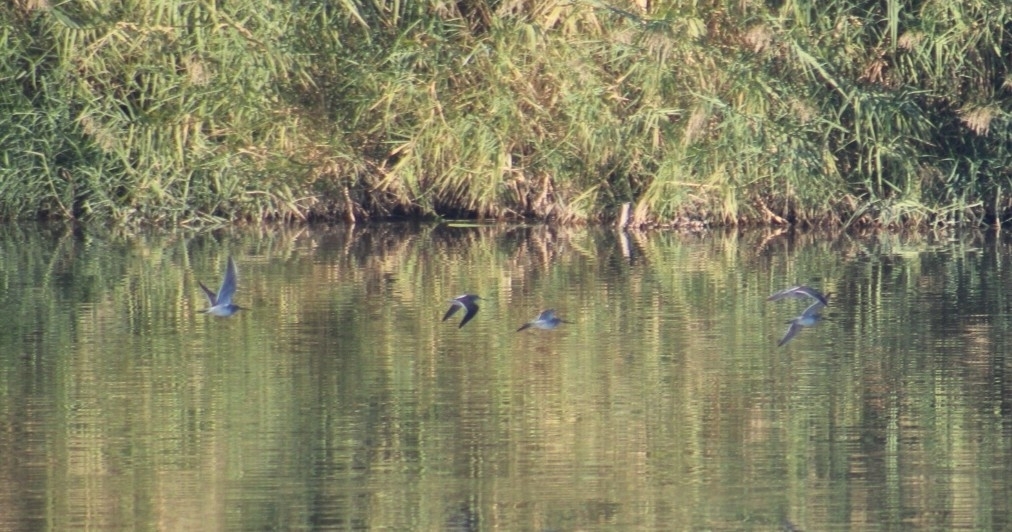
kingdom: Animalia
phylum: Chordata
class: Aves
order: Charadriiformes
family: Scolopacidae
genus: Limnodromus
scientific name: Limnodromus scolopaceus
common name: Long-billed dowitcher
